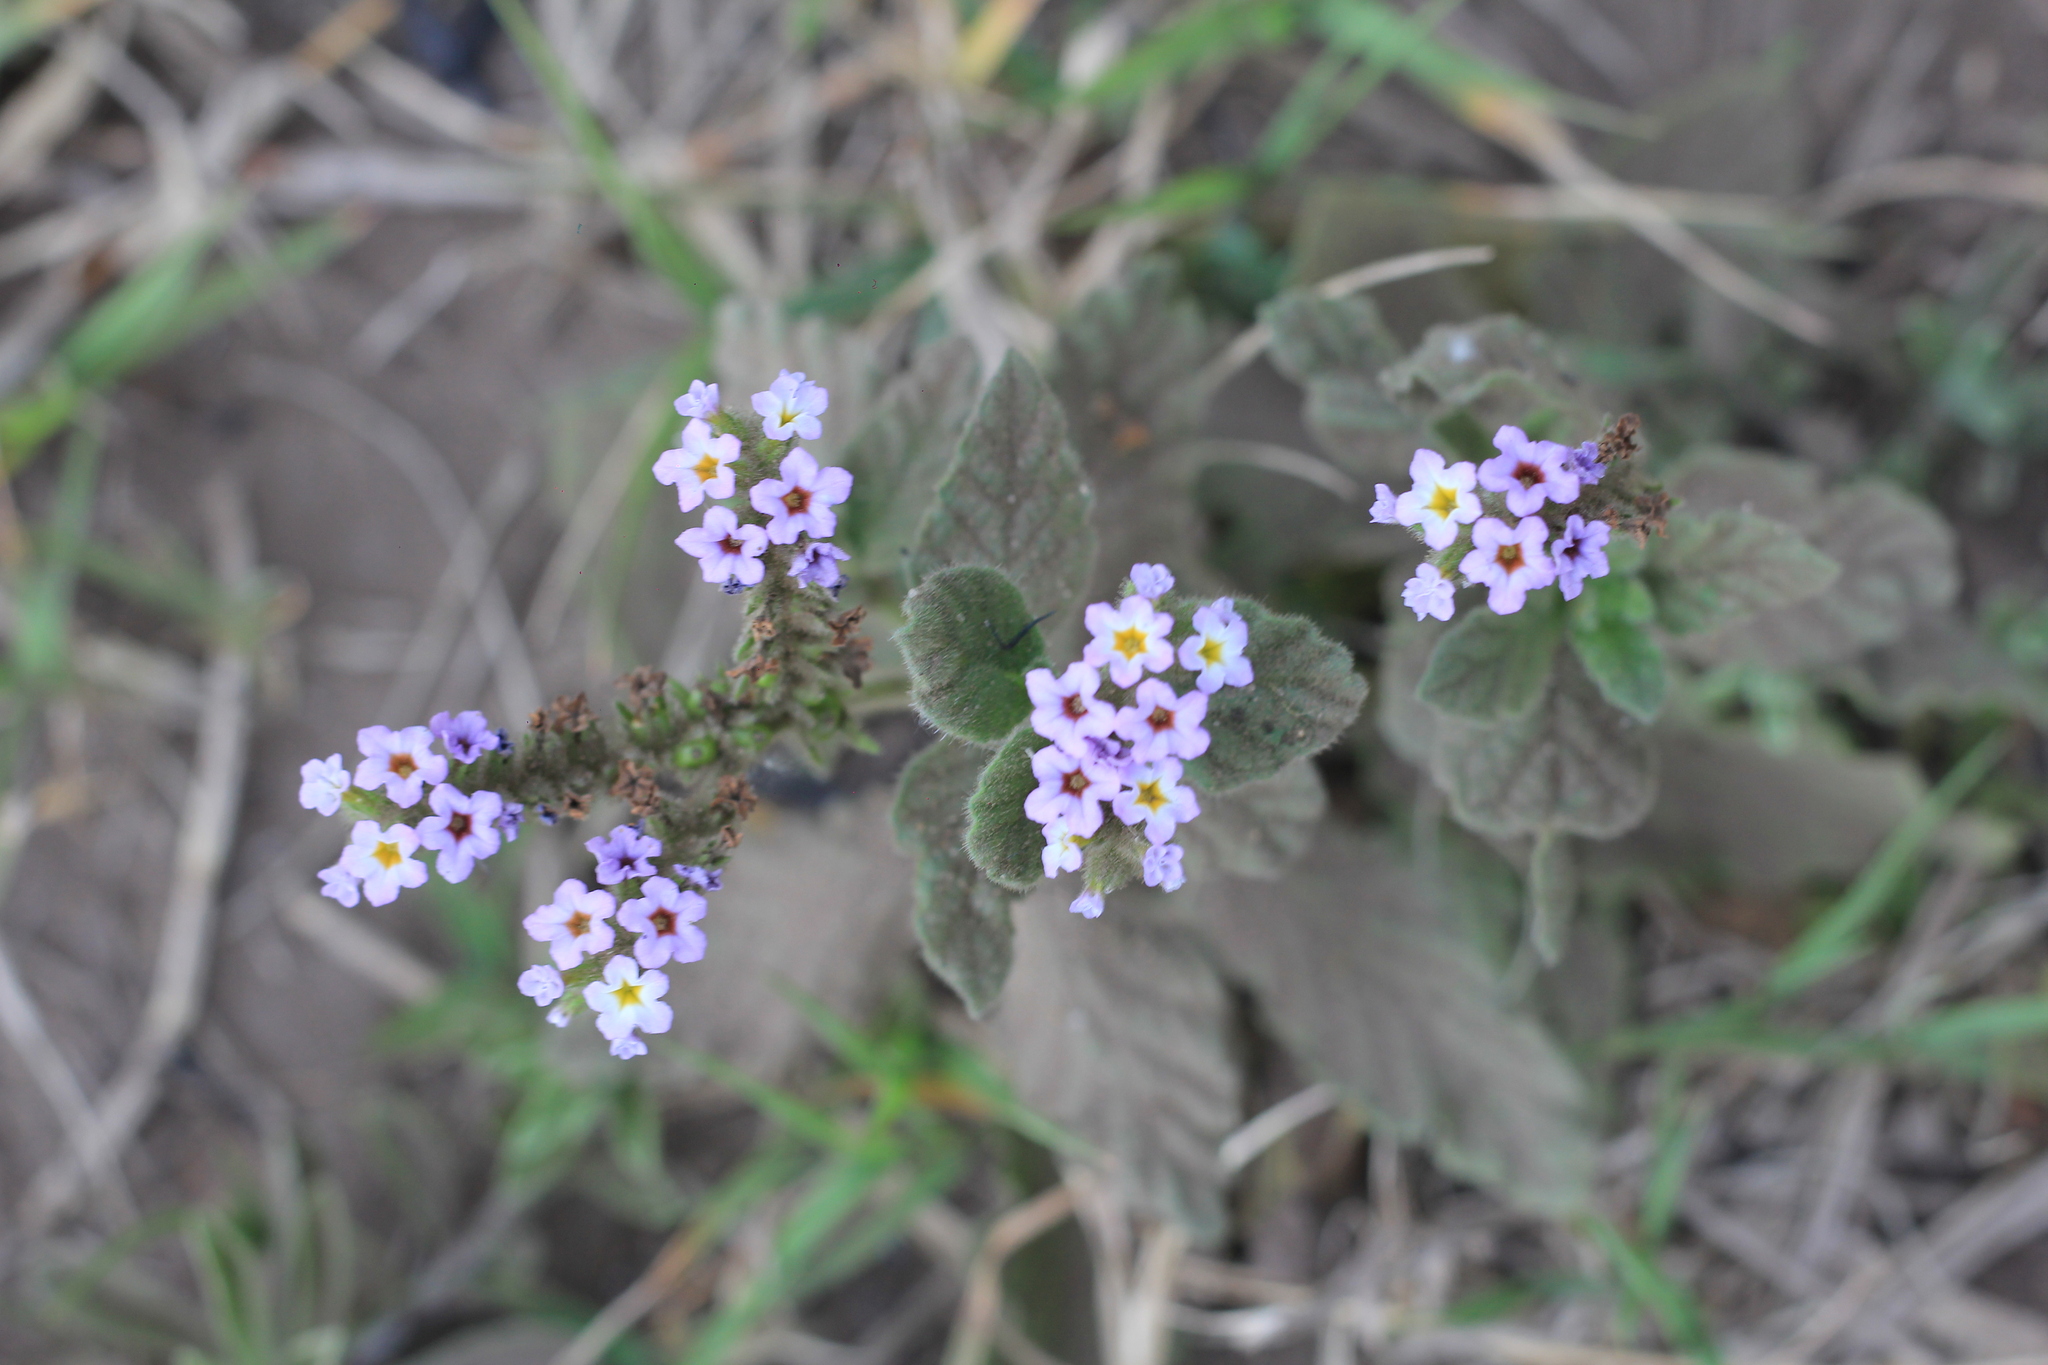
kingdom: Plantae
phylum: Tracheophyta
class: Magnoliopsida
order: Boraginales
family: Heliotropiaceae
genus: Heliotropium
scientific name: Heliotropium amplexicaule
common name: Clasping heliotrope
